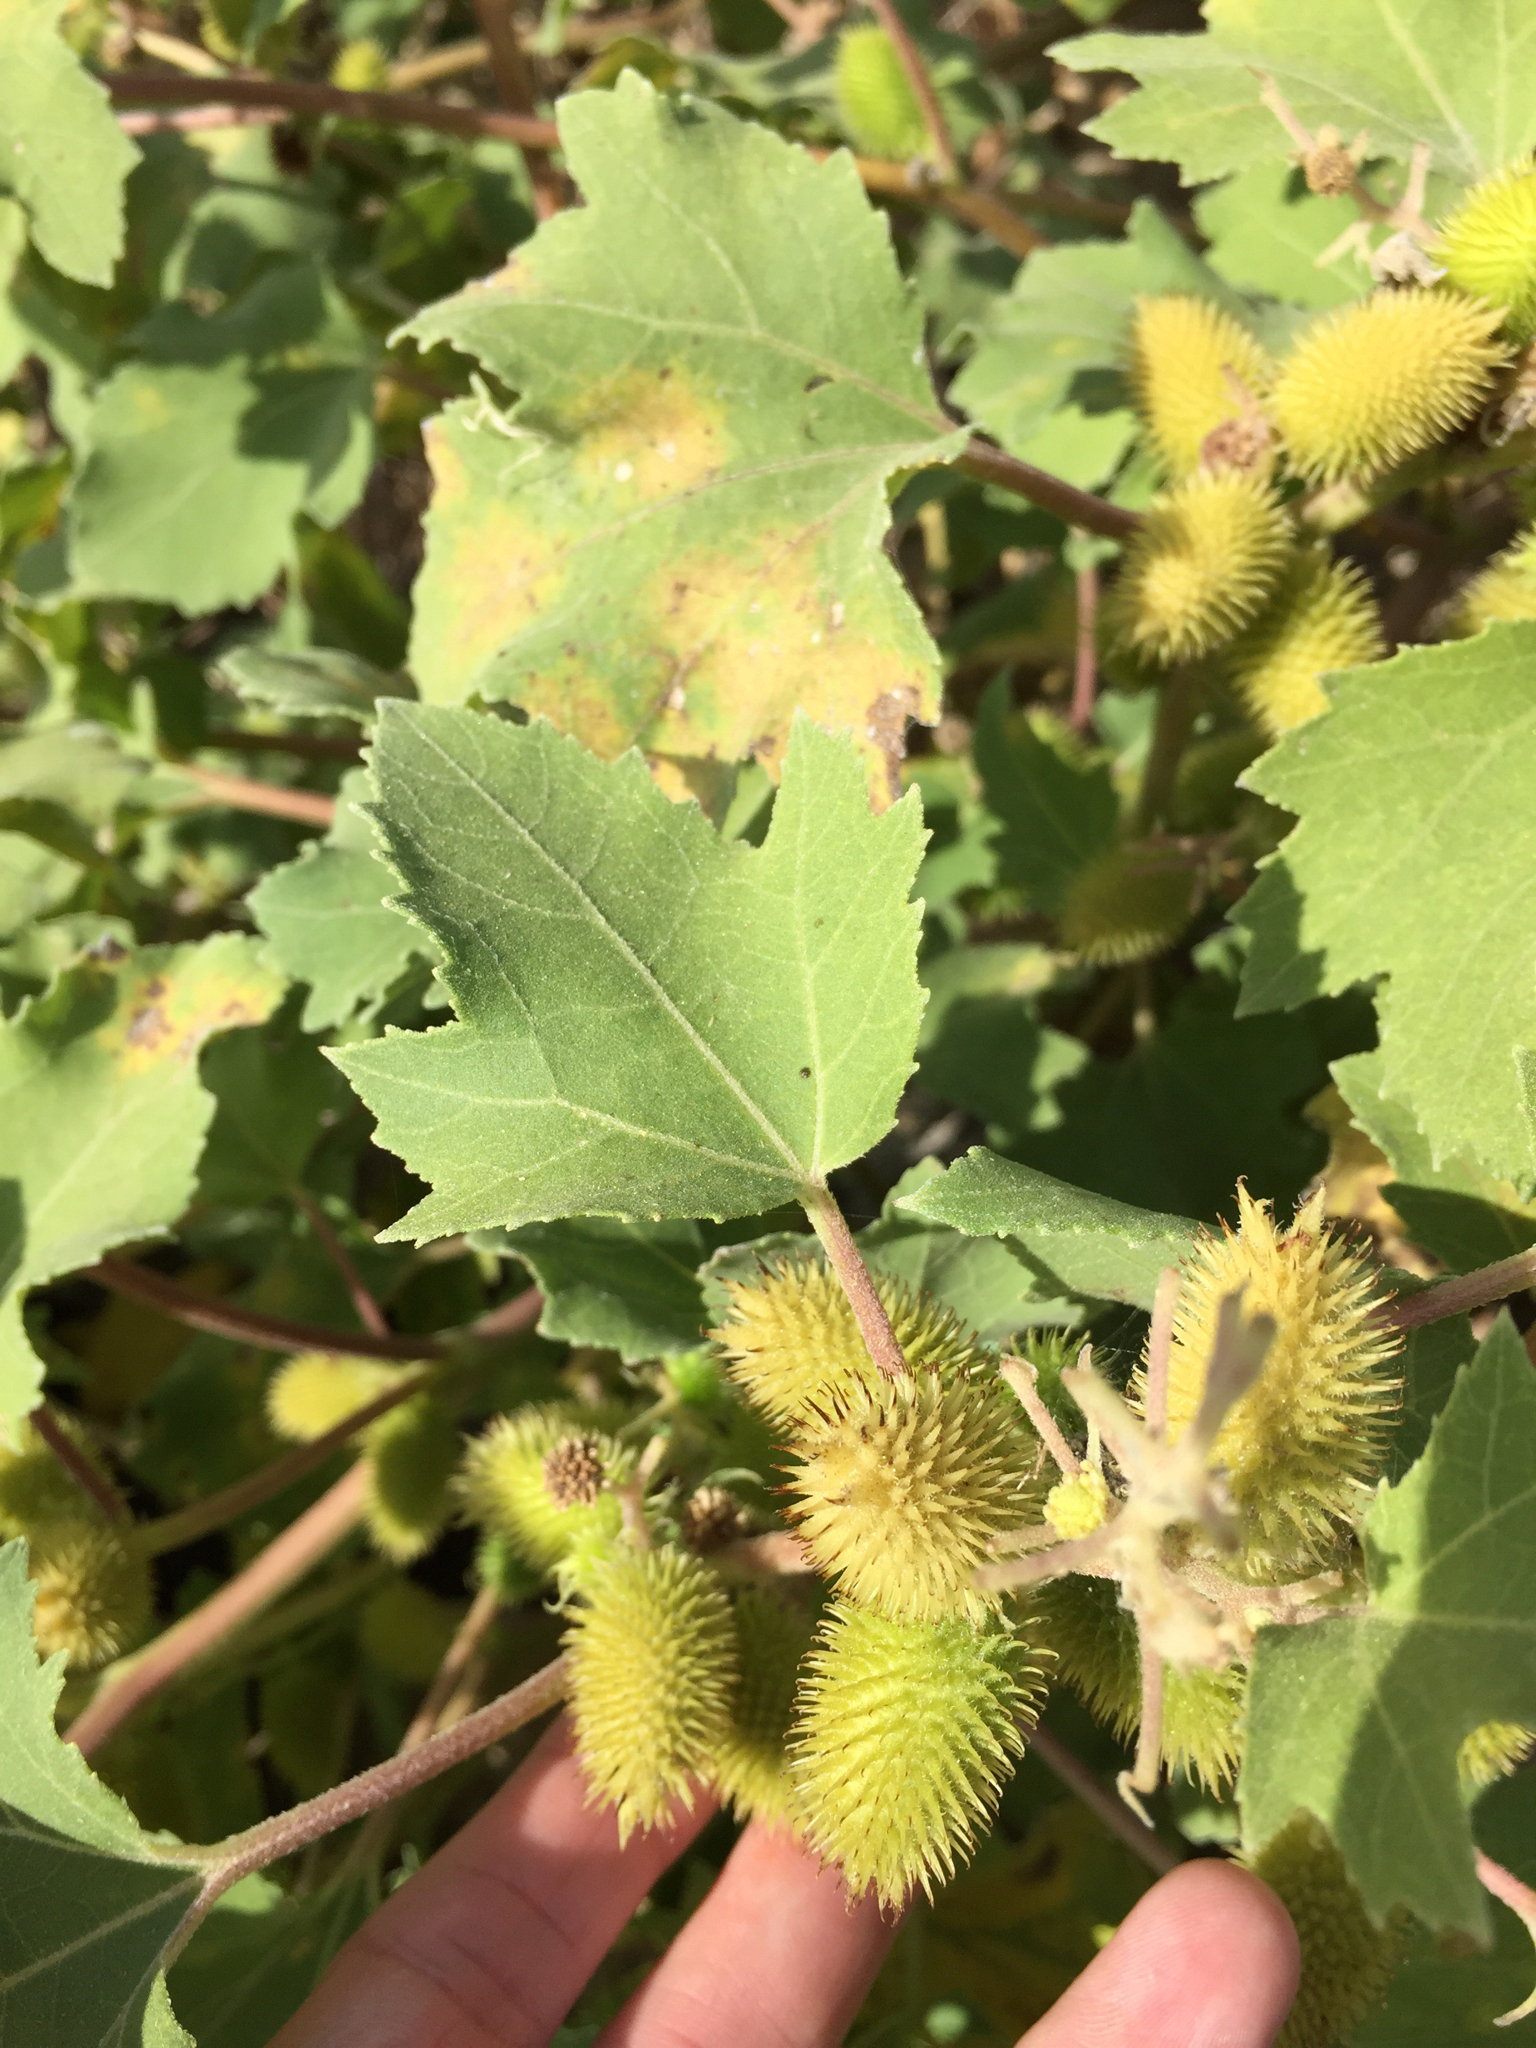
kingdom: Plantae
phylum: Tracheophyta
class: Magnoliopsida
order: Asterales
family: Asteraceae
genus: Xanthium
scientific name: Xanthium strumarium
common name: Rough cocklebur
